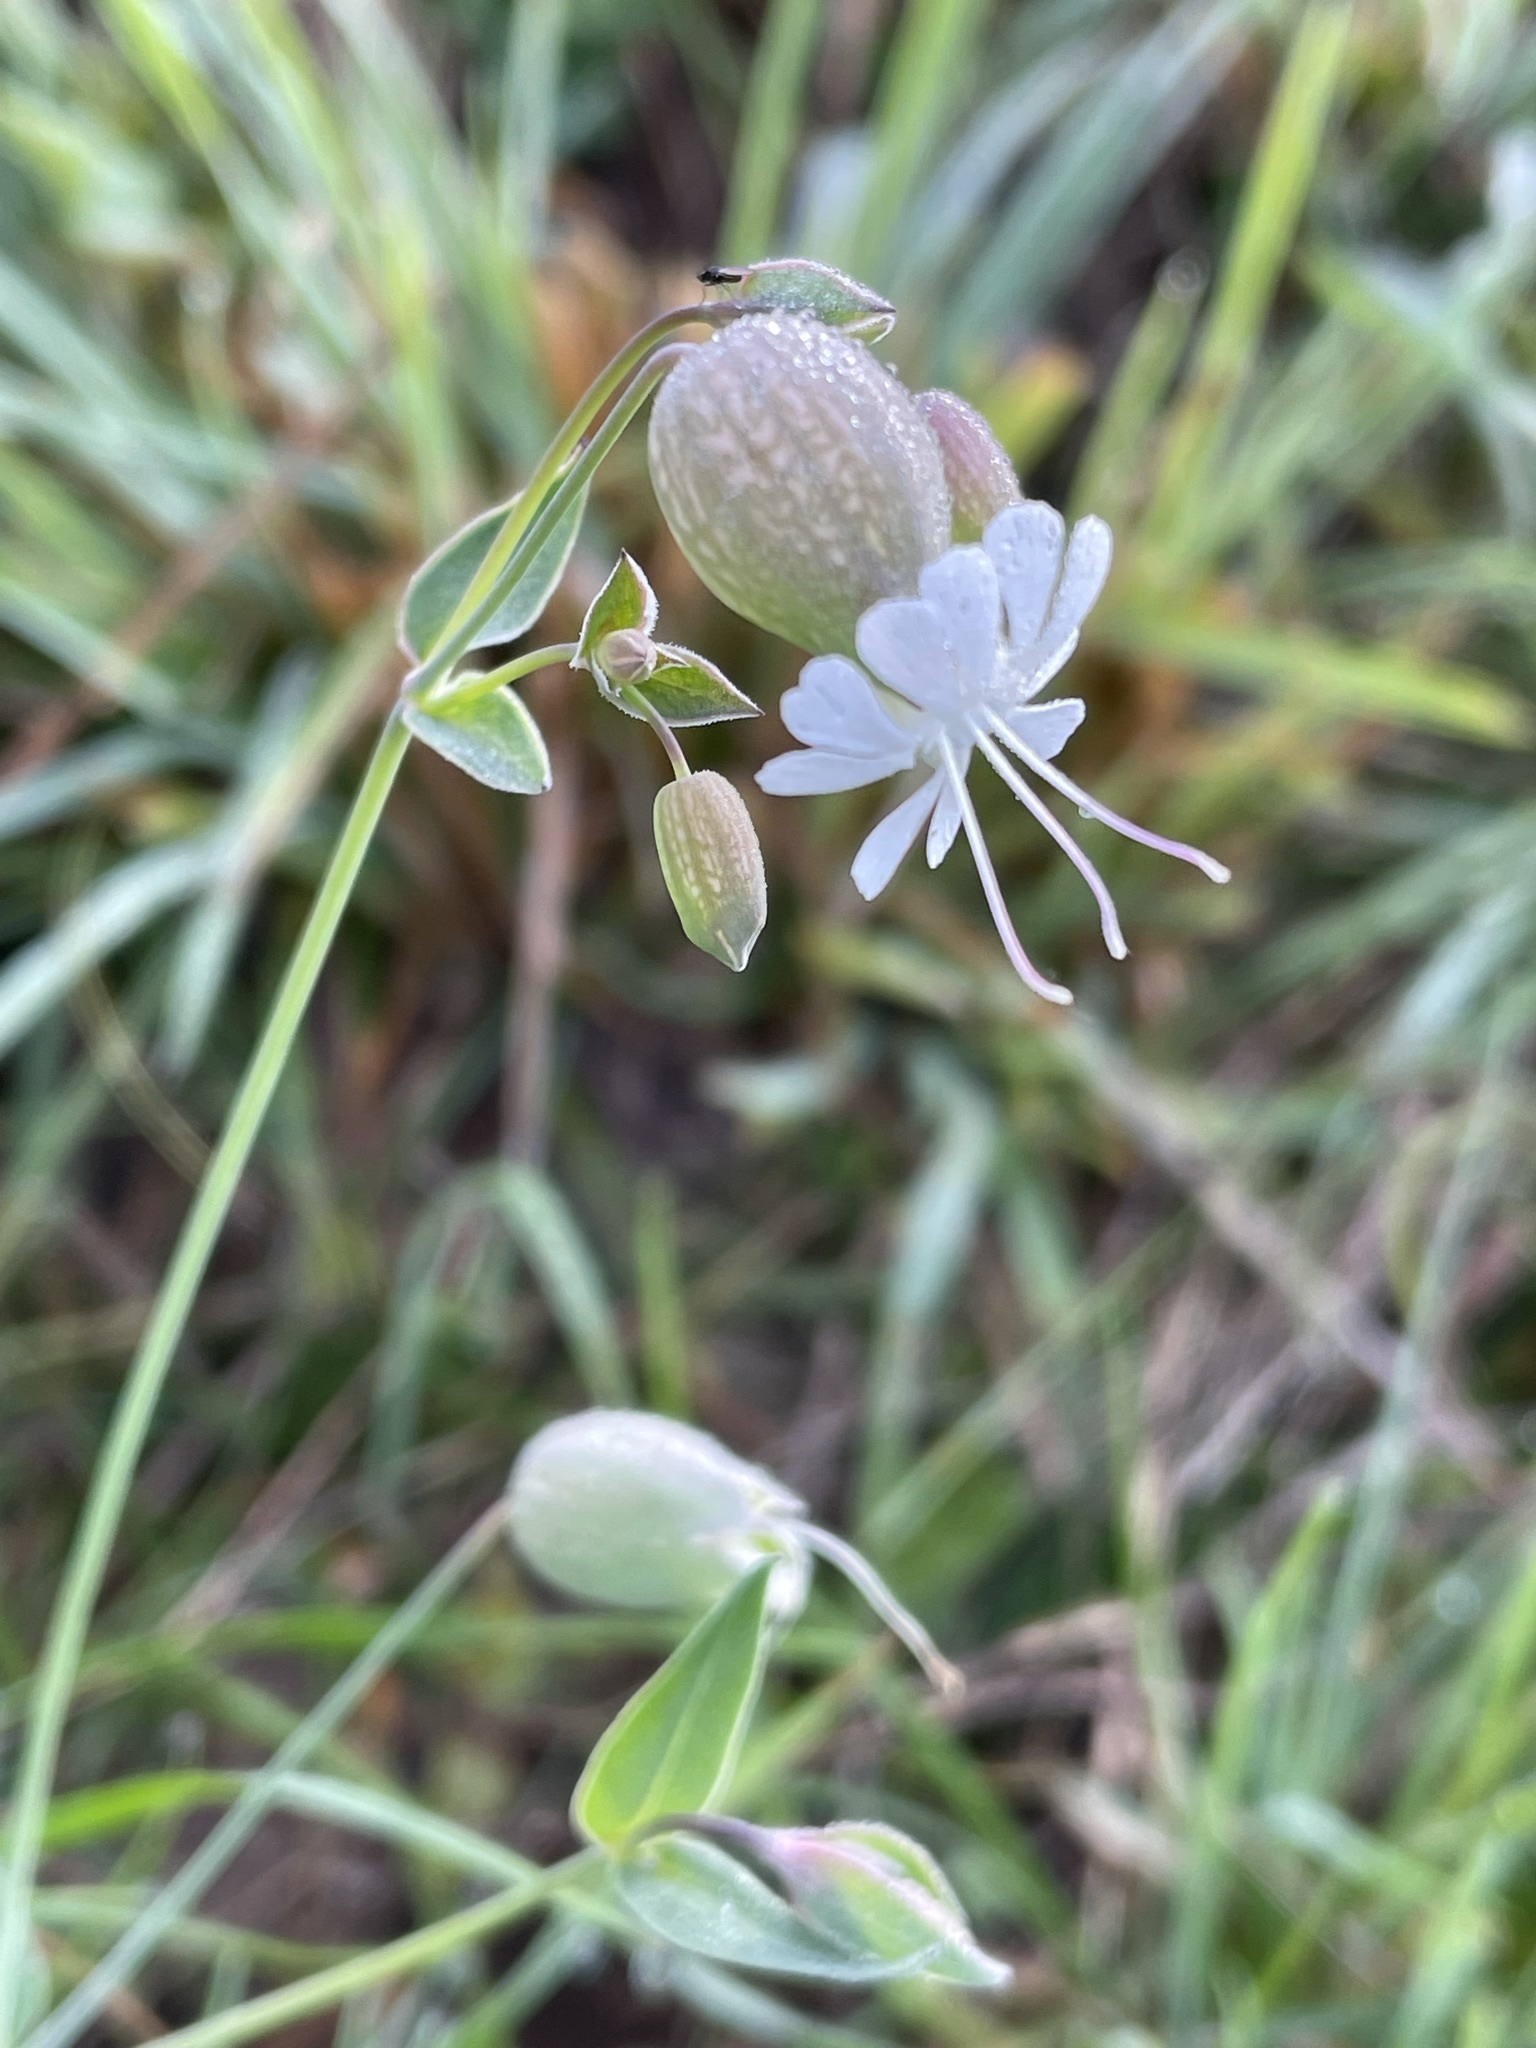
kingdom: Plantae
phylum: Tracheophyta
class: Magnoliopsida
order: Caryophyllales
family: Caryophyllaceae
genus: Silene
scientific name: Silene vulgaris
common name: Bladder campion
